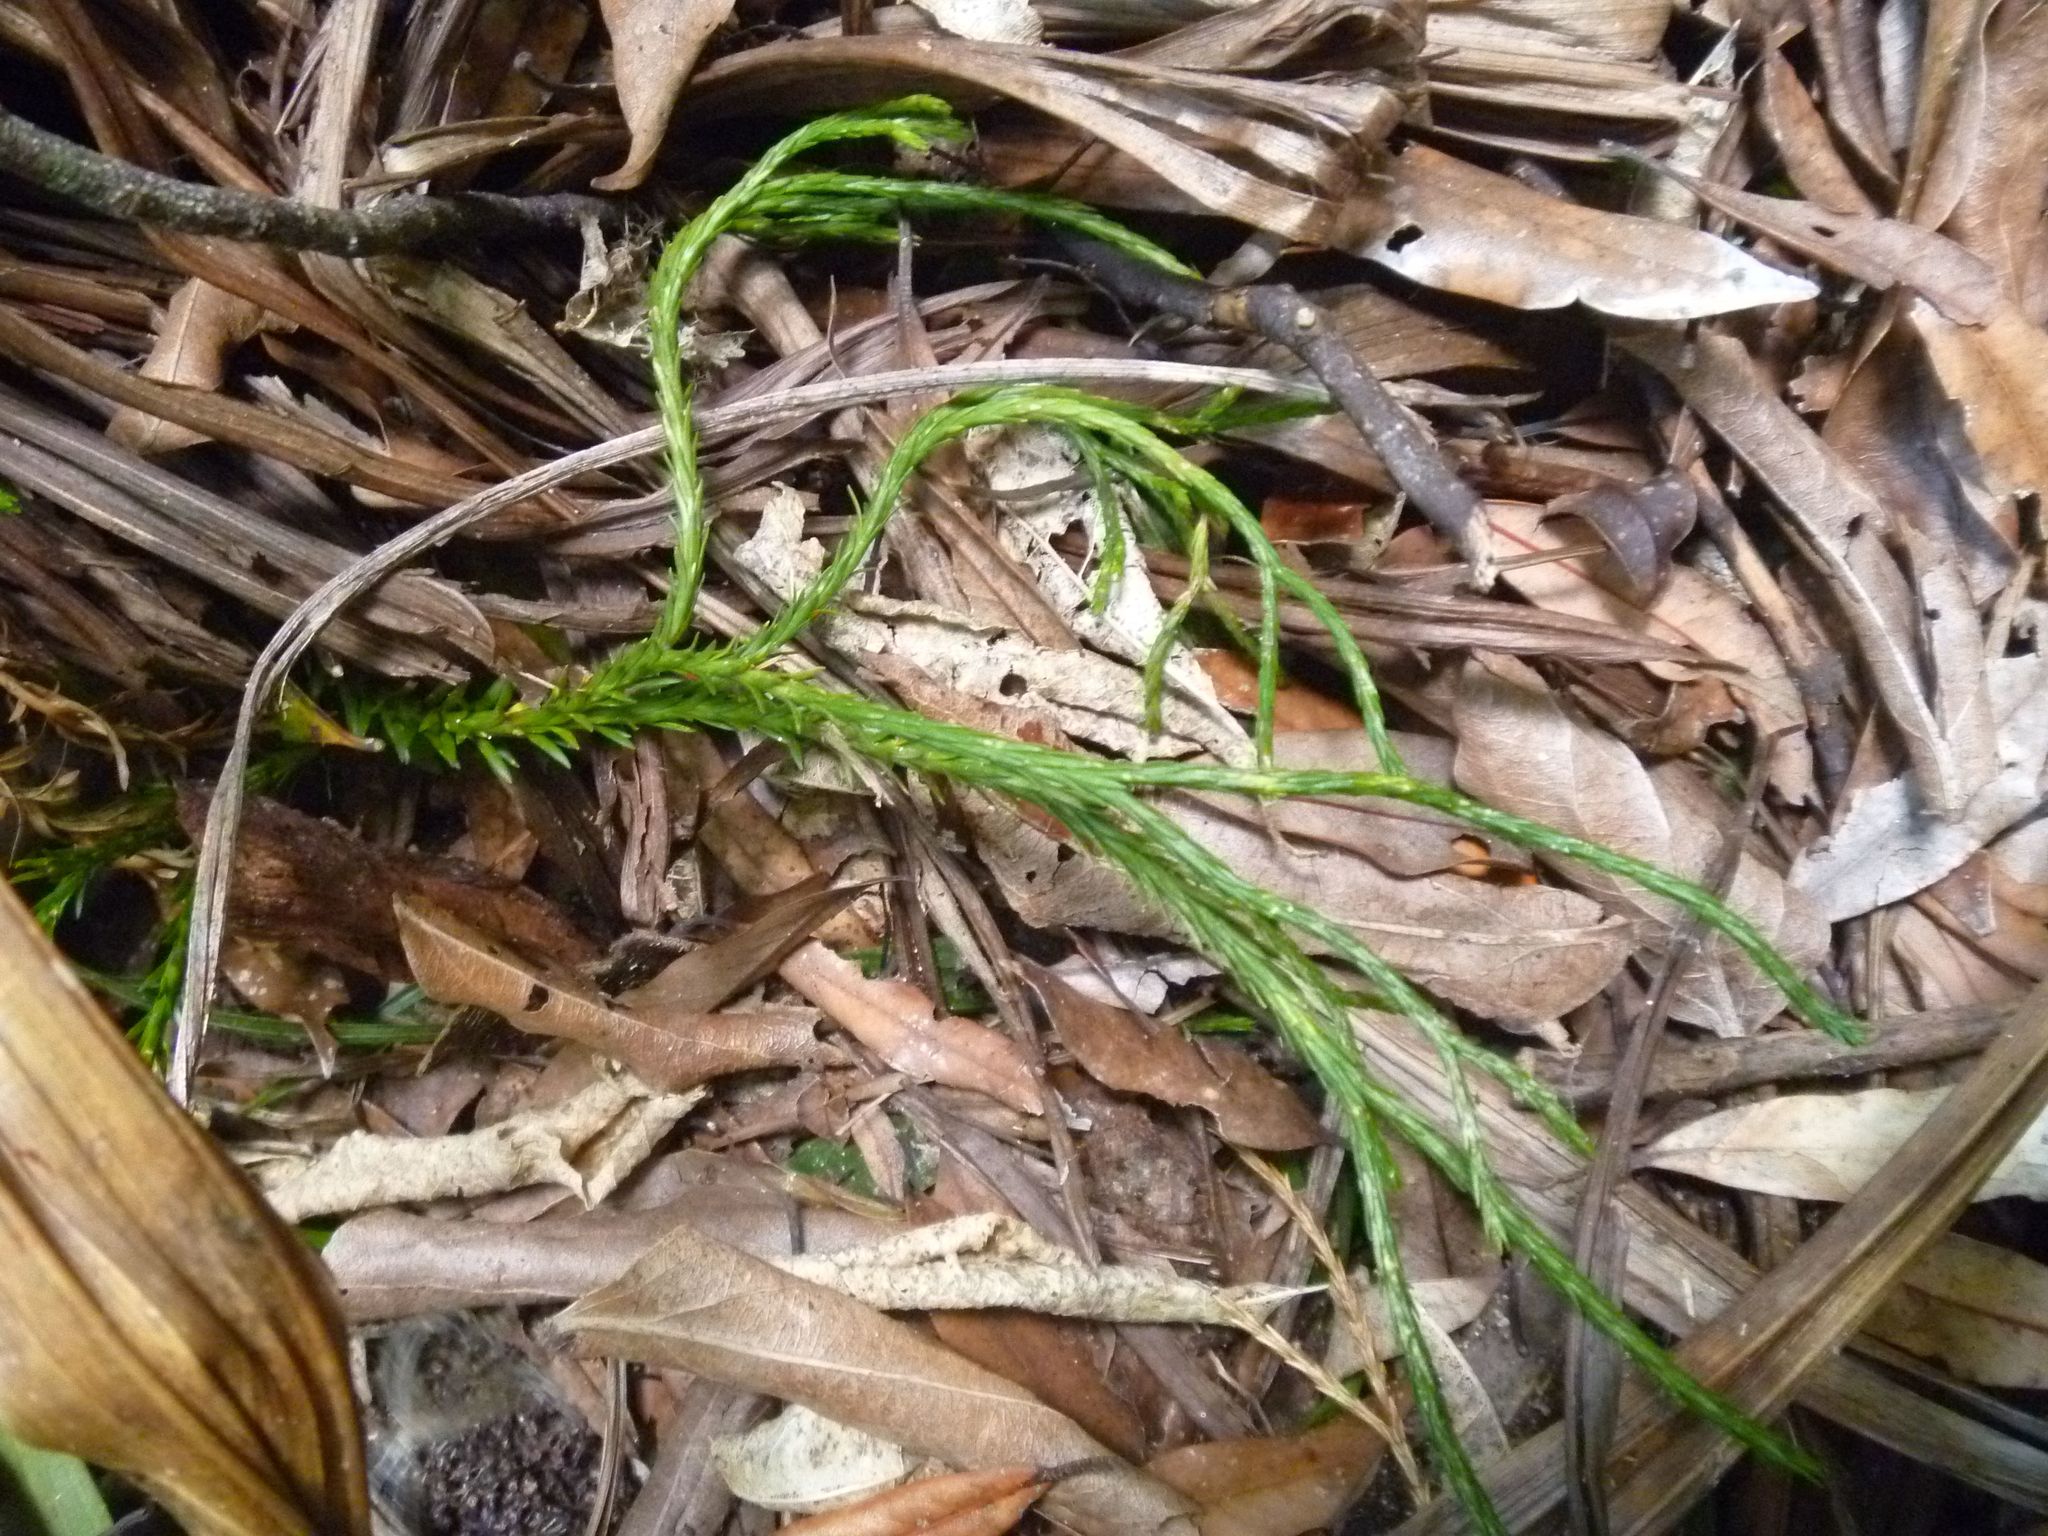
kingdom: Plantae
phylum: Tracheophyta
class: Lycopodiopsida
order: Lycopodiales
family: Lycopodiaceae
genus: Phlegmariurus
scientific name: Phlegmariurus varius
